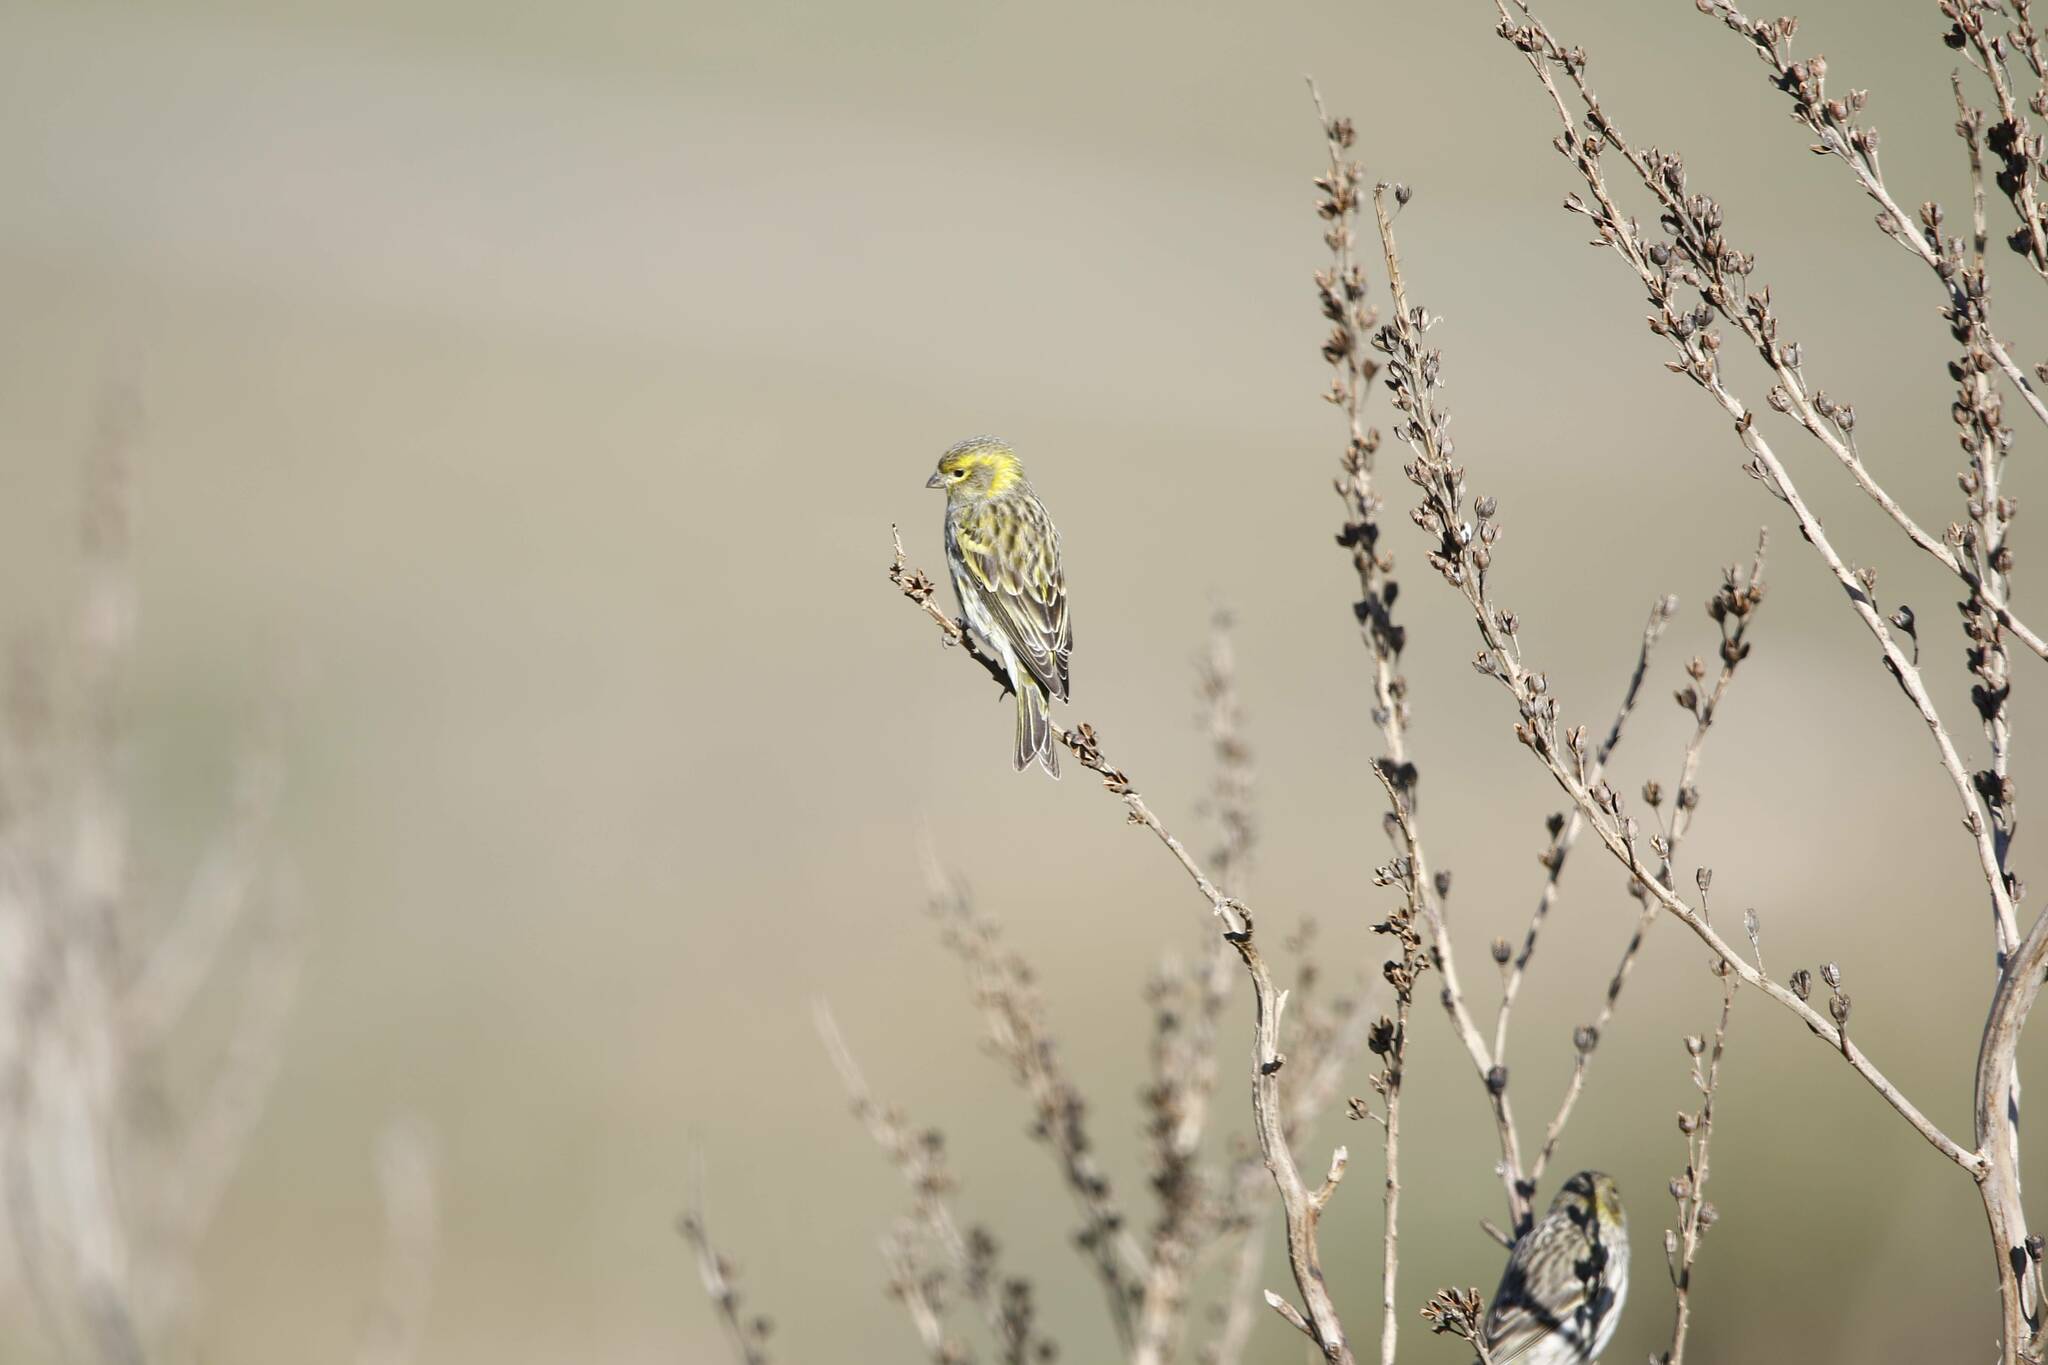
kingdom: Animalia
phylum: Chordata
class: Aves
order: Passeriformes
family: Fringillidae
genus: Serinus
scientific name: Serinus serinus
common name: European serin
